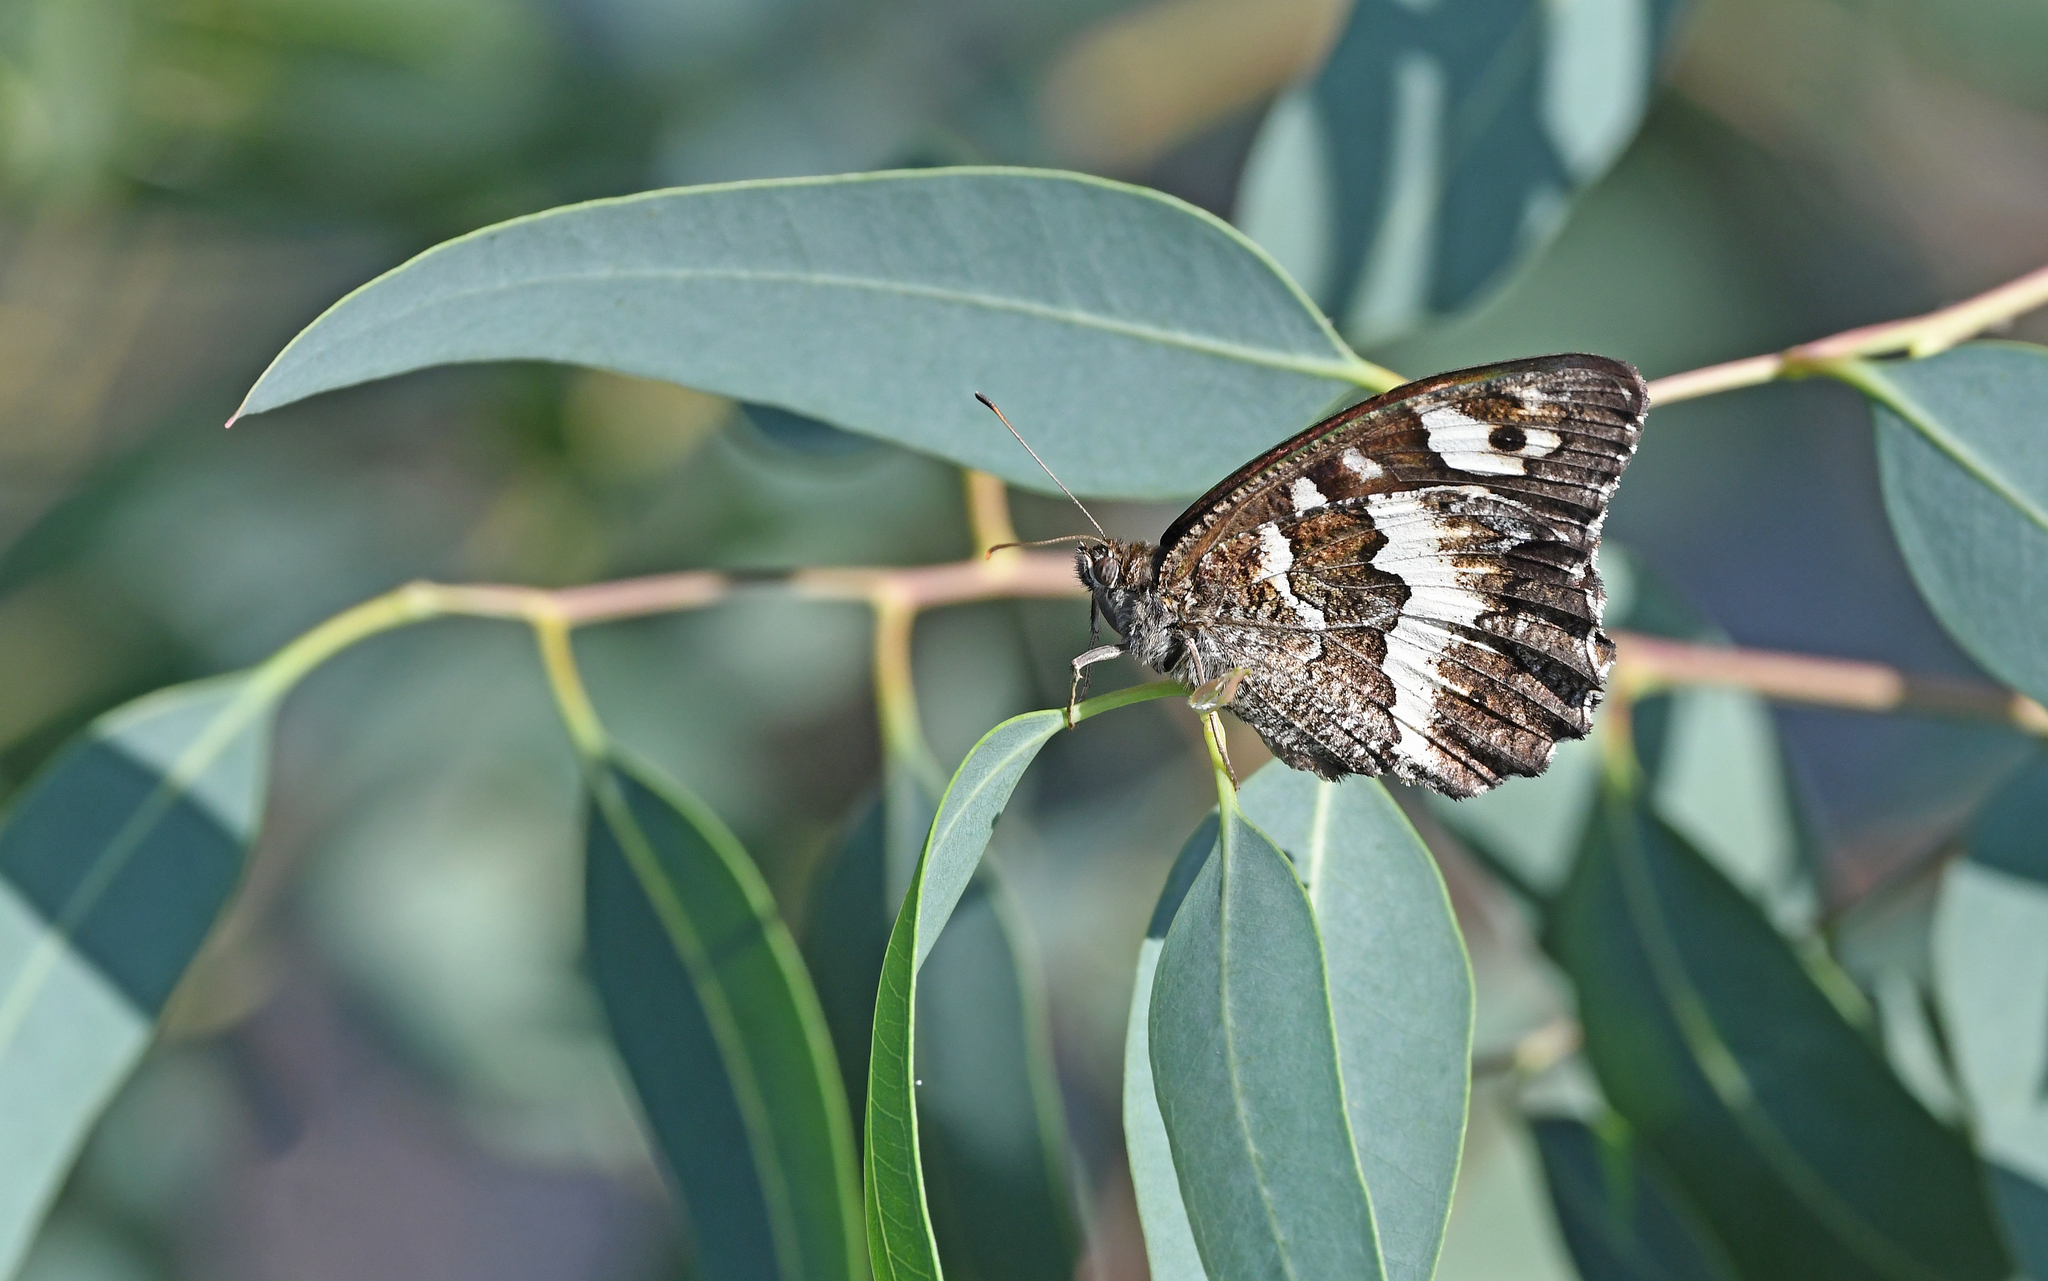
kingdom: Animalia
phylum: Arthropoda
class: Insecta
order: Lepidoptera
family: Lycaenidae
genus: Loweia
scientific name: Loweia tityrus
